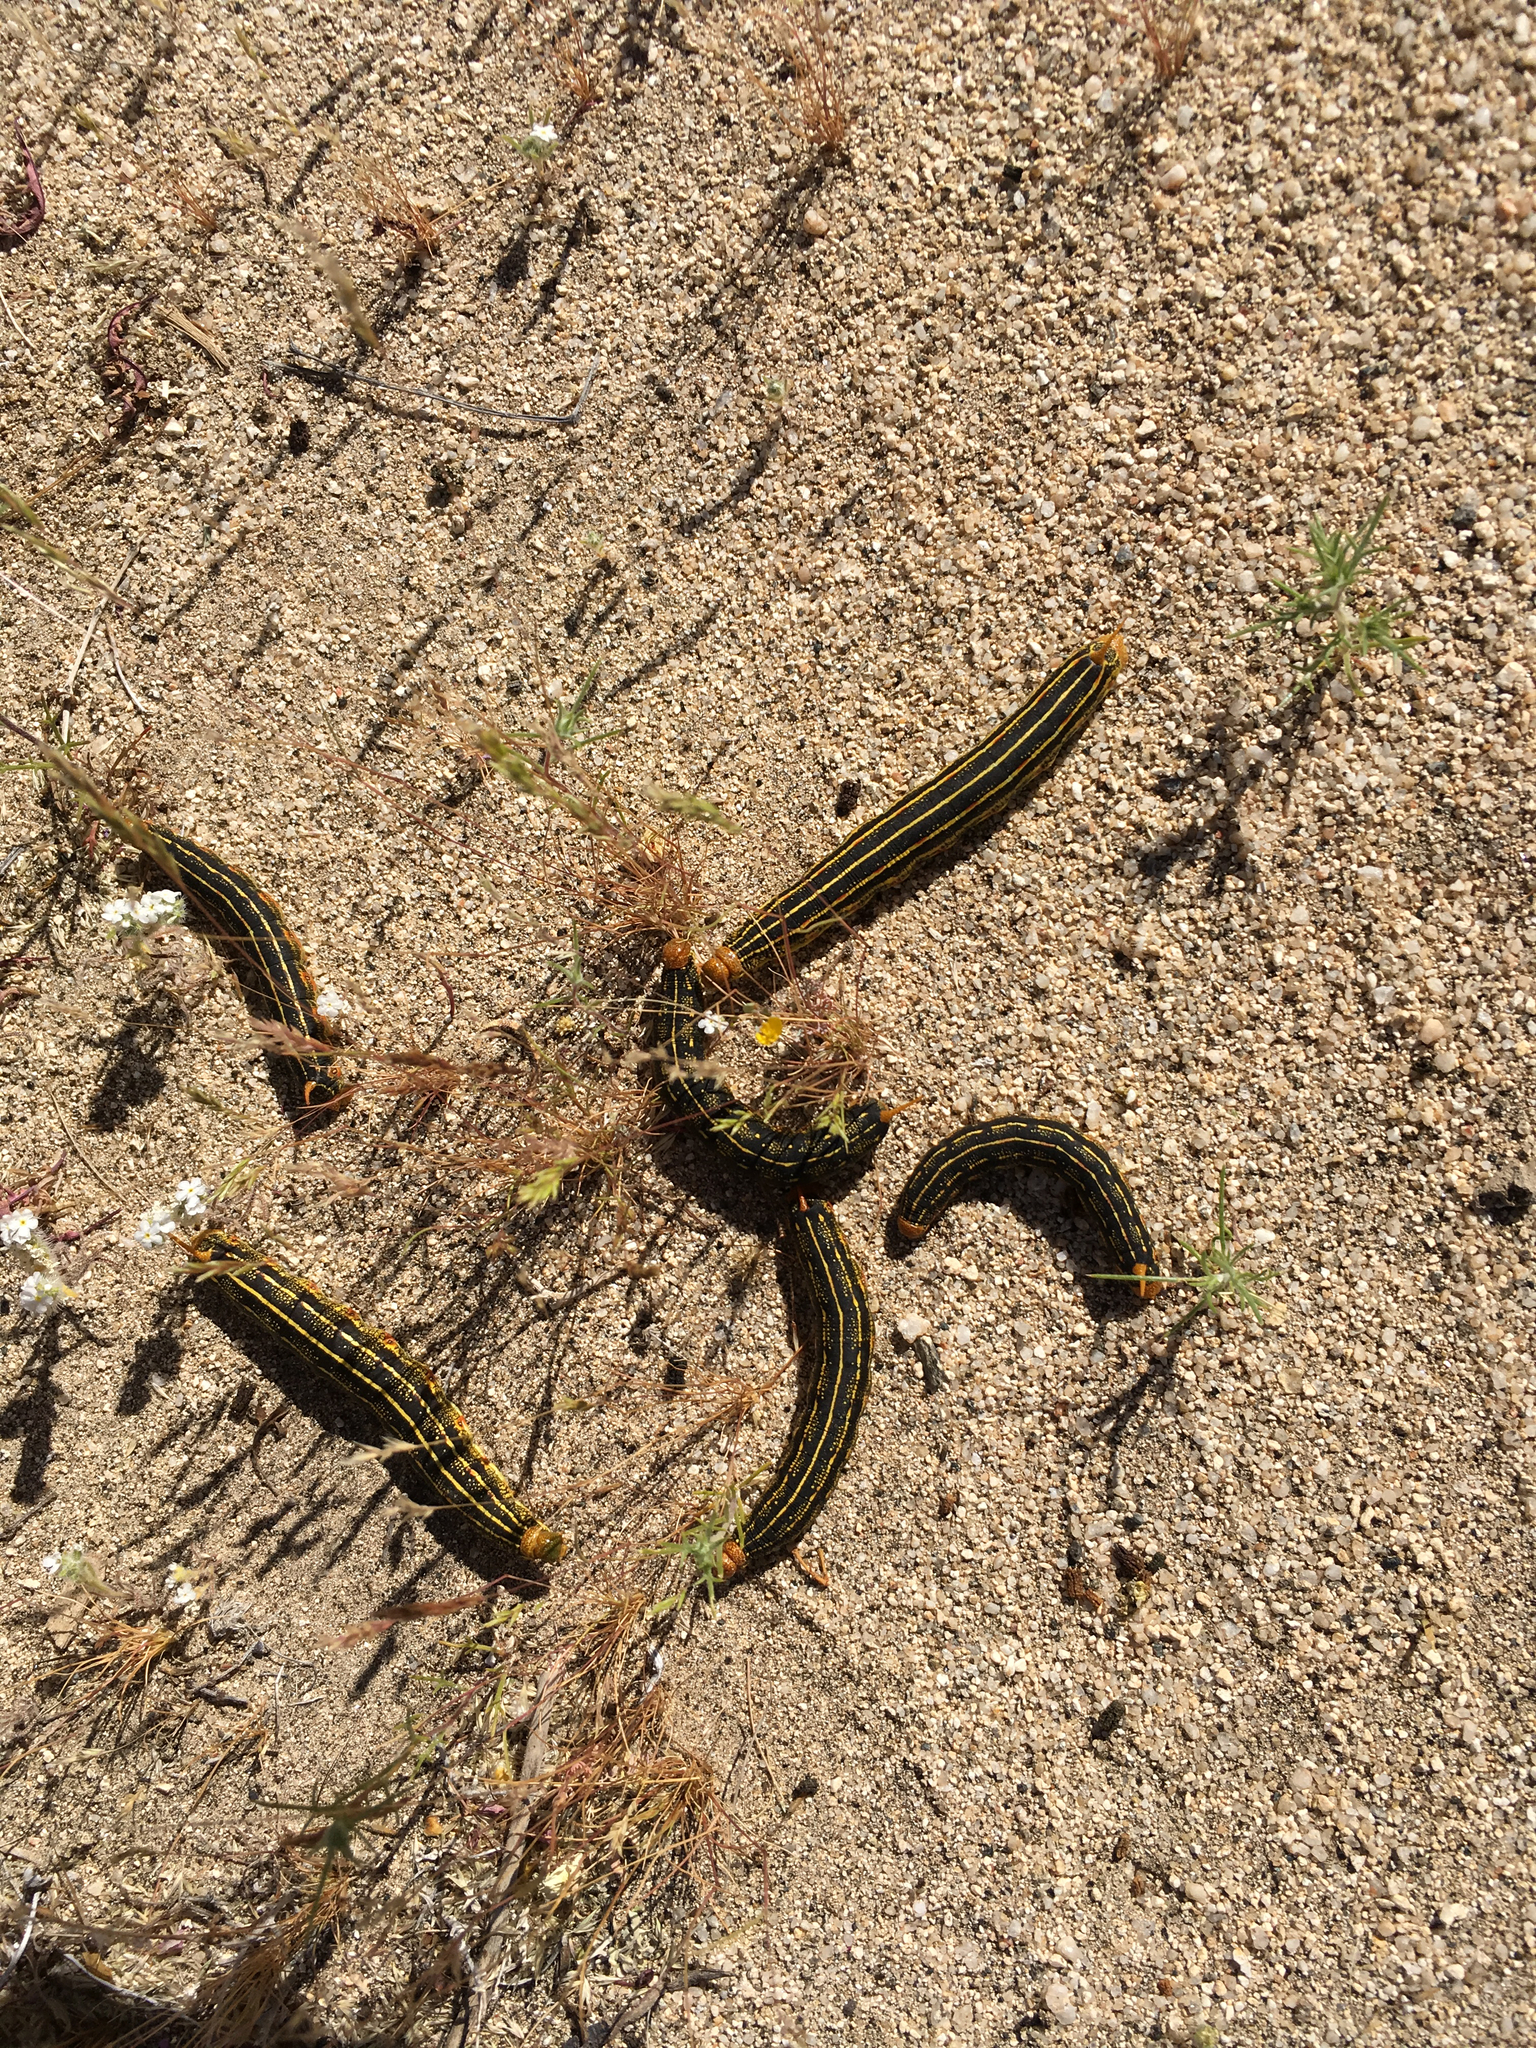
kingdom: Animalia
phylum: Arthropoda
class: Insecta
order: Lepidoptera
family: Sphingidae
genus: Hyles
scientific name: Hyles lineata
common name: White-lined sphinx
